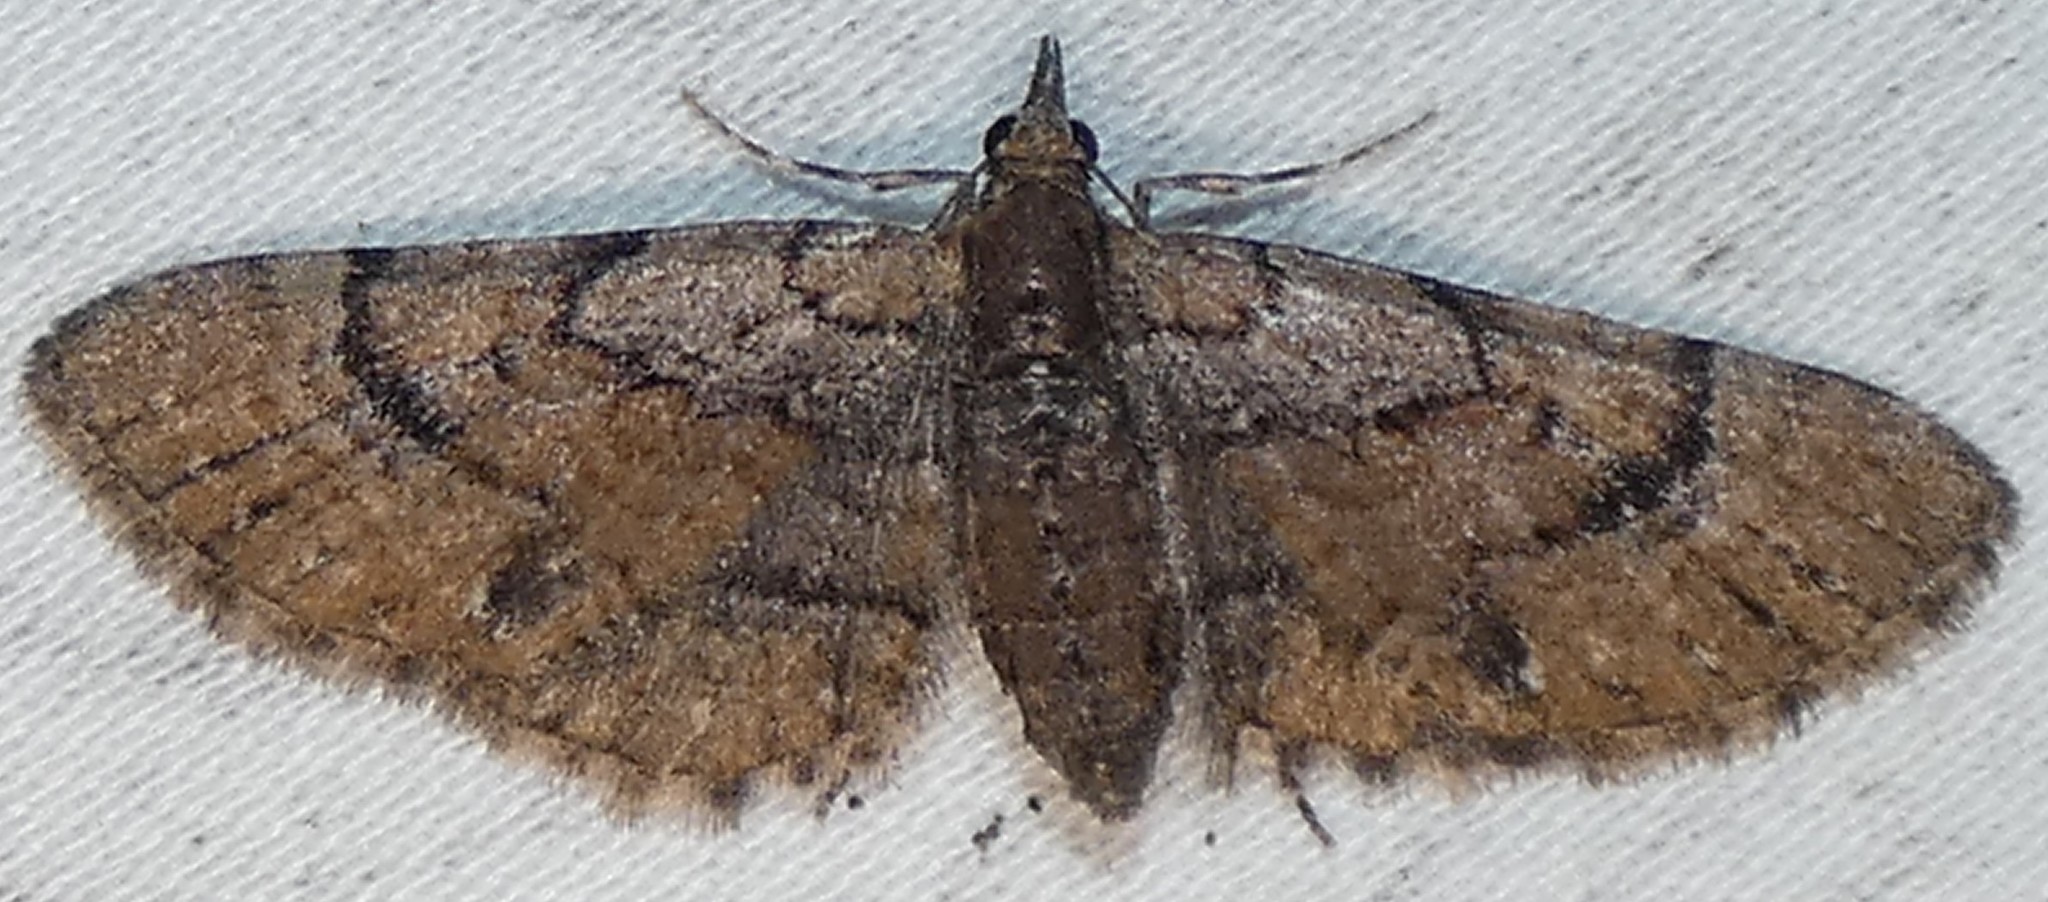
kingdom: Animalia
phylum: Arthropoda
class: Insecta
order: Lepidoptera
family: Geometridae
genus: Eupithecia
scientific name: Eupithecia peckorum
